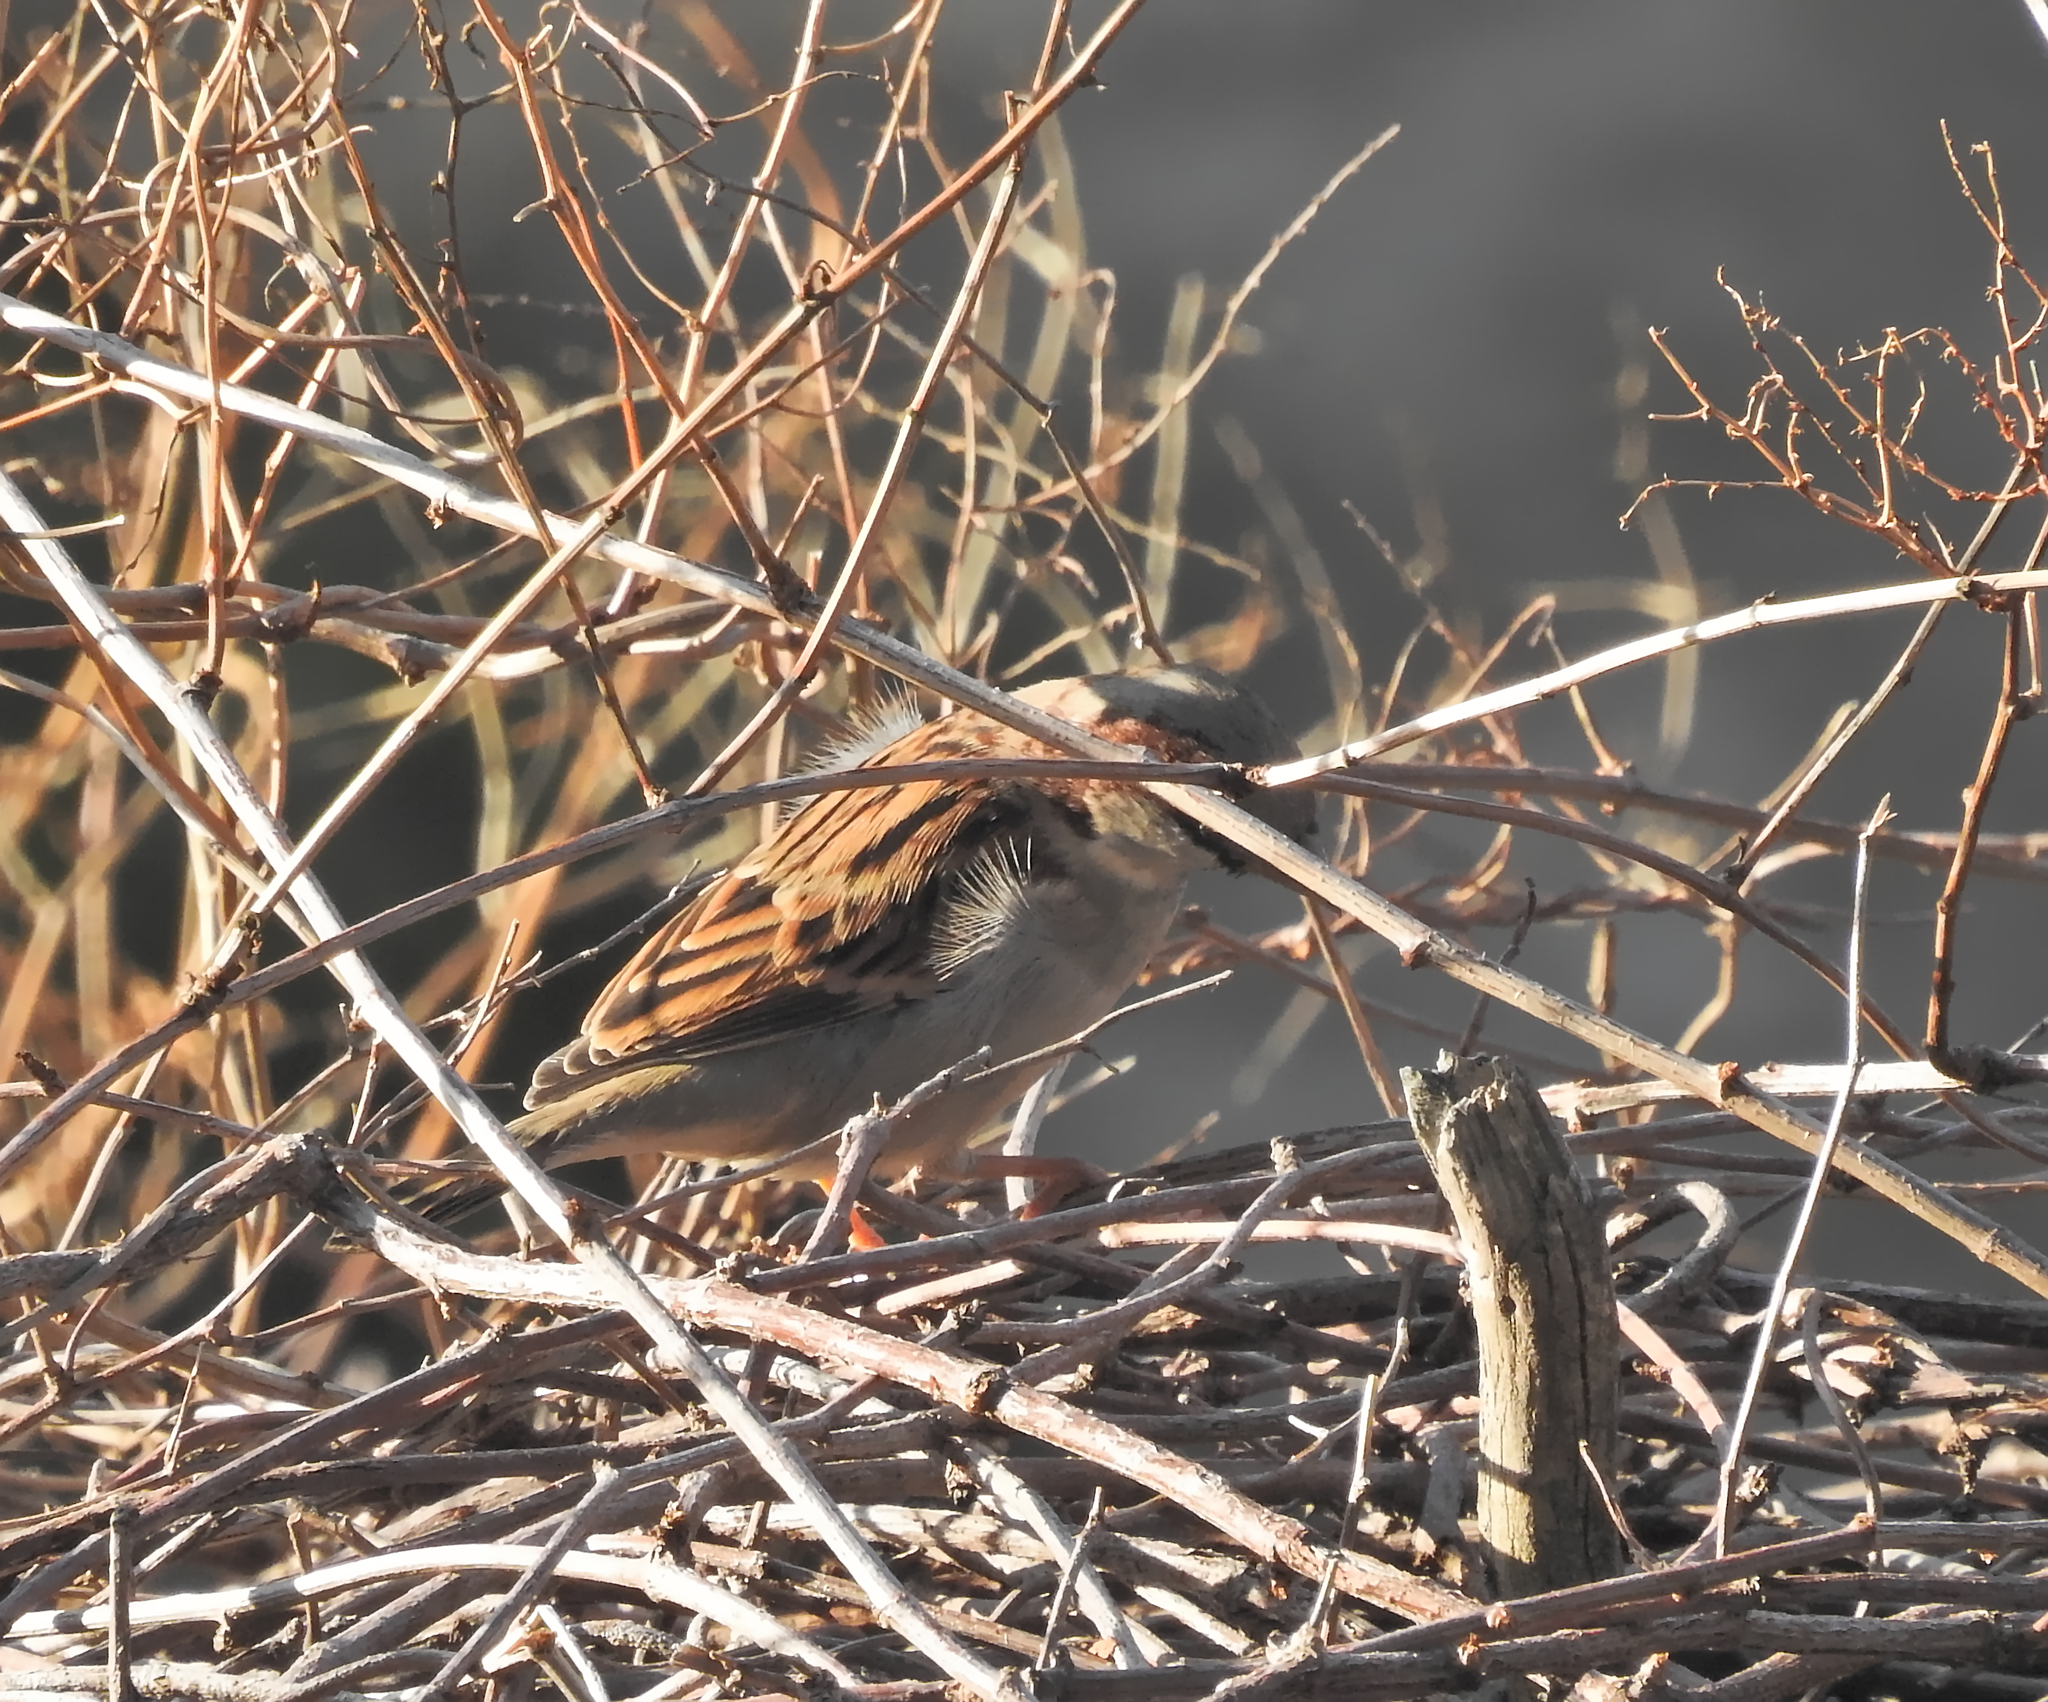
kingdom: Animalia
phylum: Chordata
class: Aves
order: Passeriformes
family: Passeridae
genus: Passer
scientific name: Passer domesticus
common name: House sparrow
